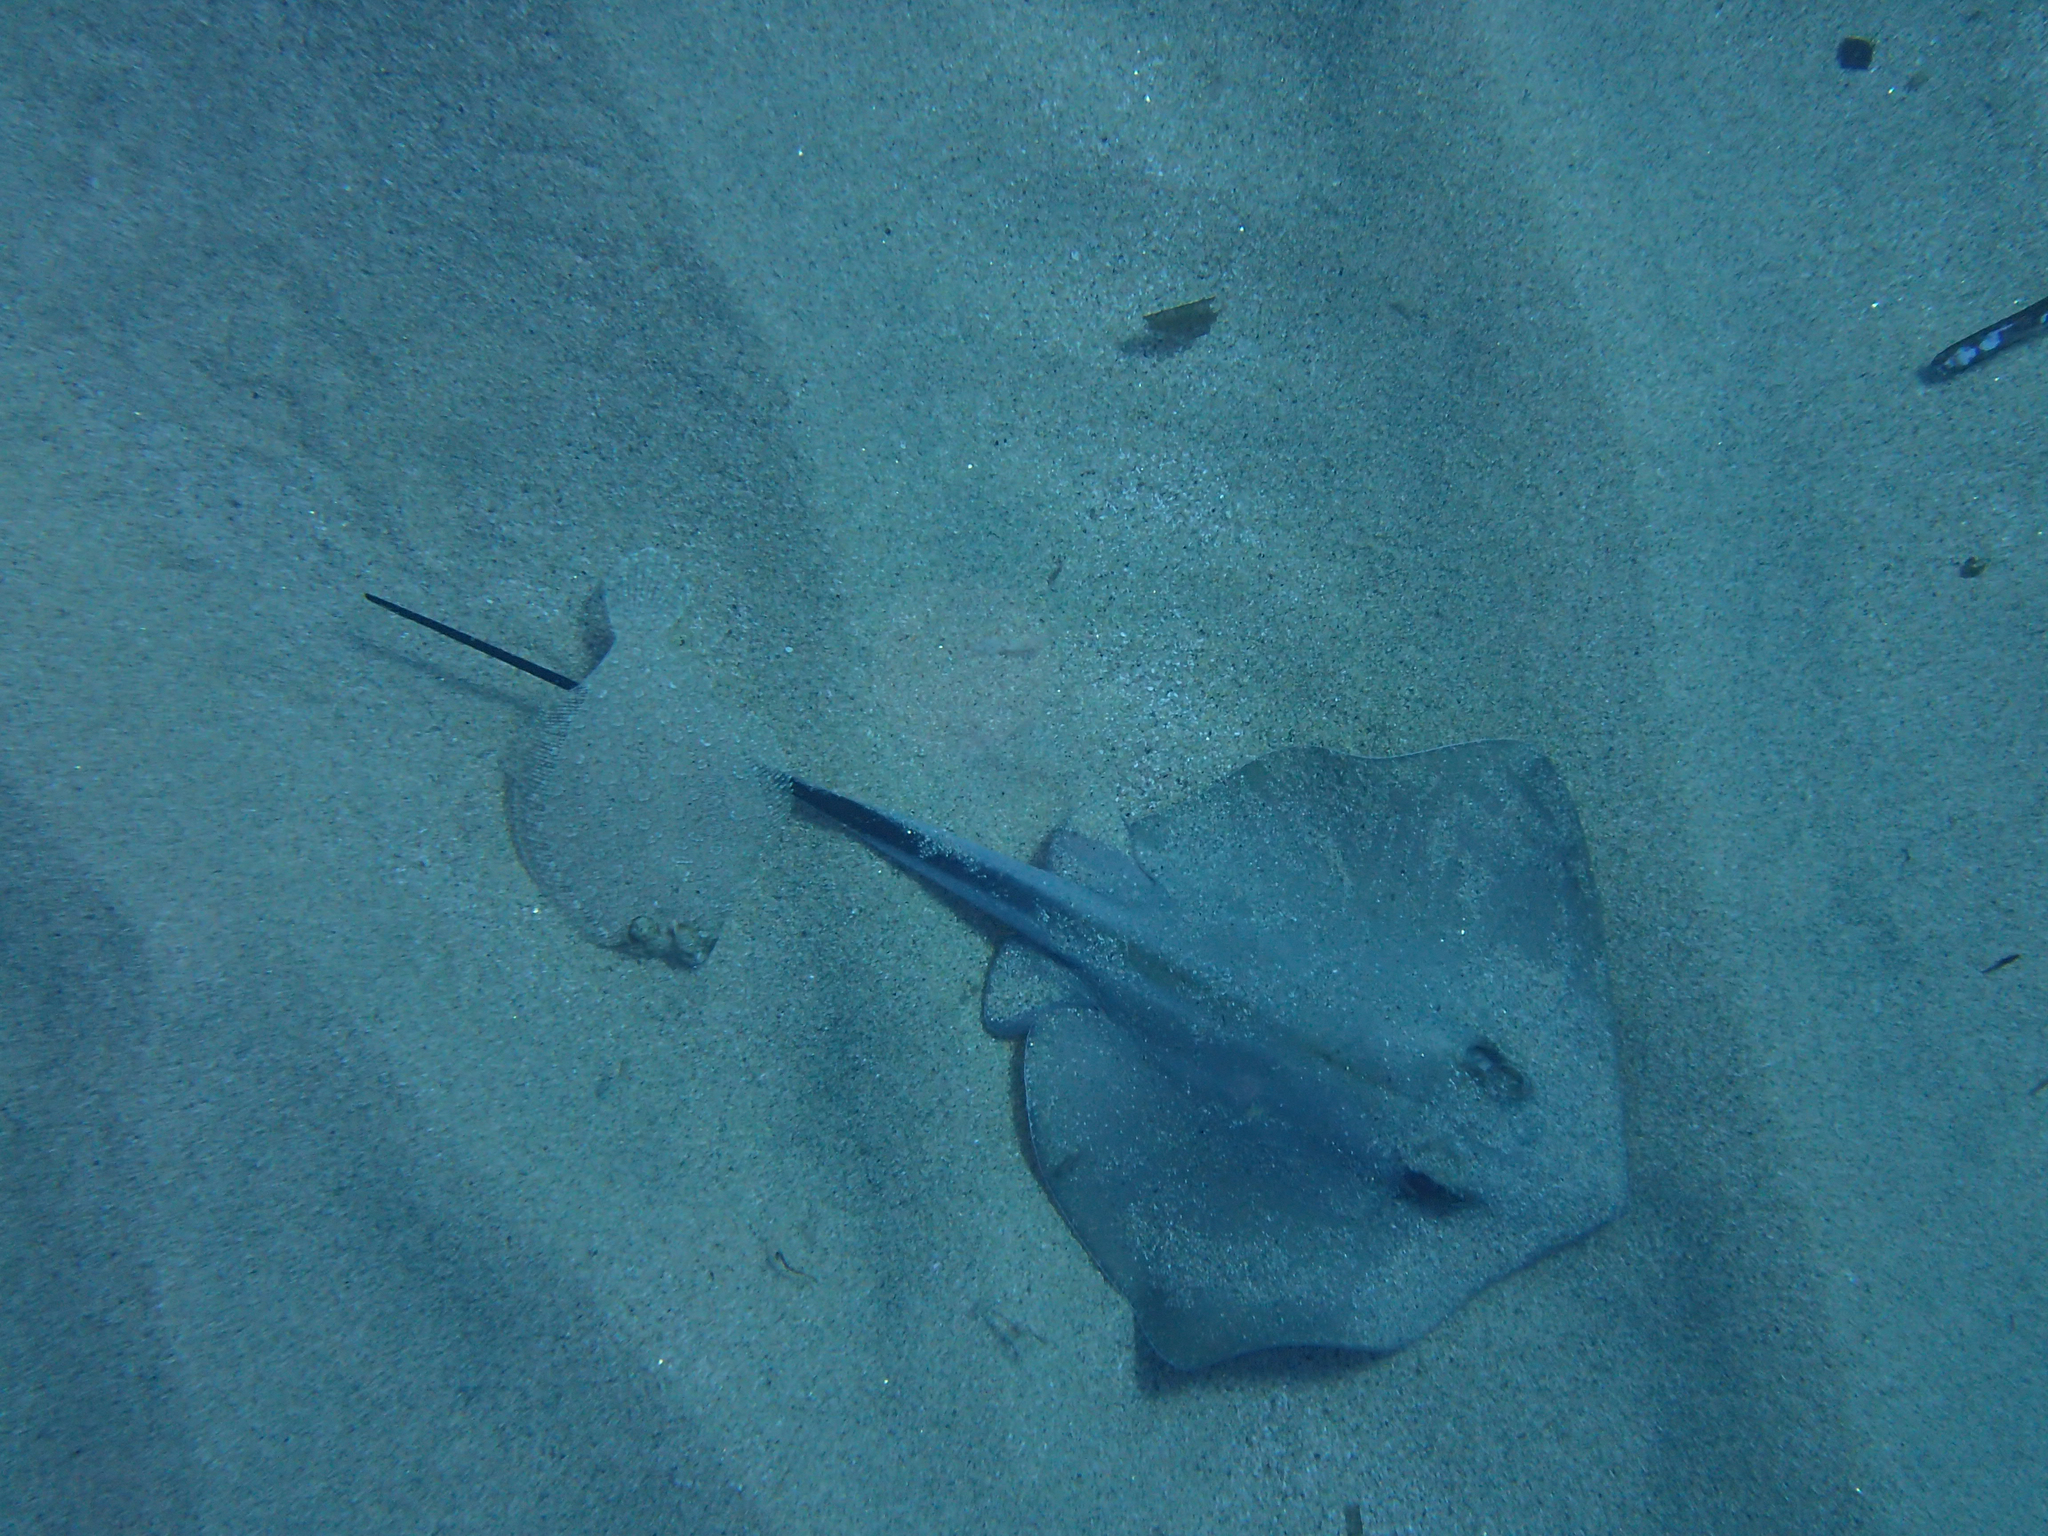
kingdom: Animalia
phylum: Chordata
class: Elasmobranchii
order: Myliobatiformes
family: Dasyatidae
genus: Dasyatis
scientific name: Dasyatis pastinaca
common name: Common stingray
